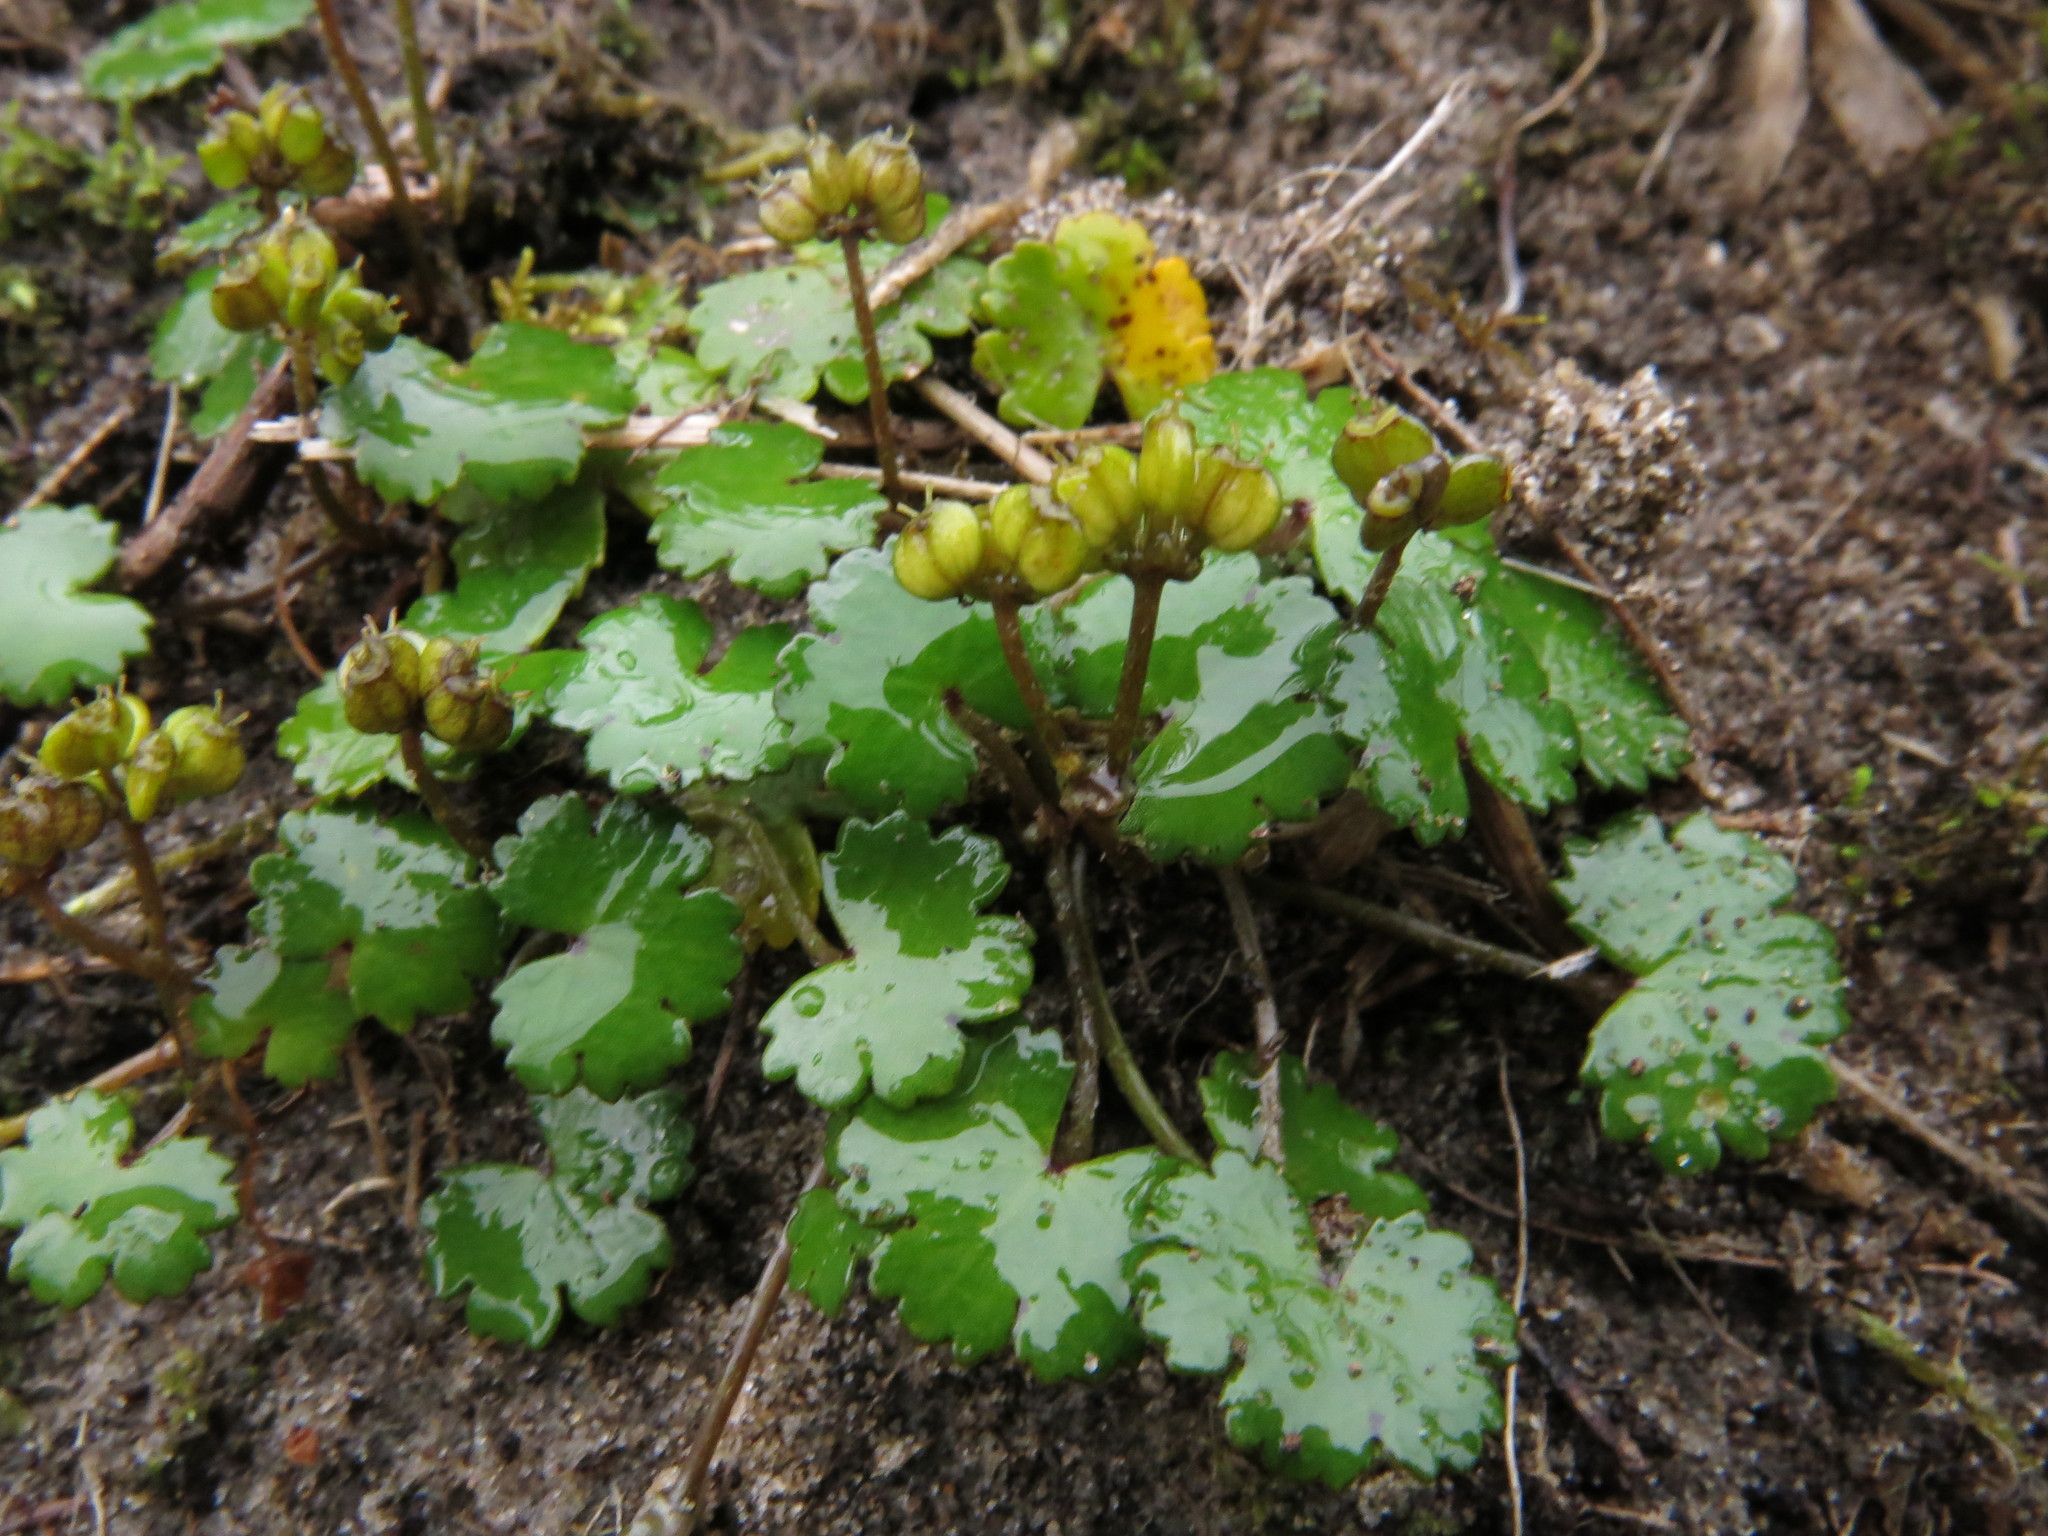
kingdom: Plantae
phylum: Tracheophyta
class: Magnoliopsida
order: Apiales
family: Araliaceae
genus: Hydrocotyle
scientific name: Hydrocotyle novae-zeelandiae
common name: New zealand pennywort
